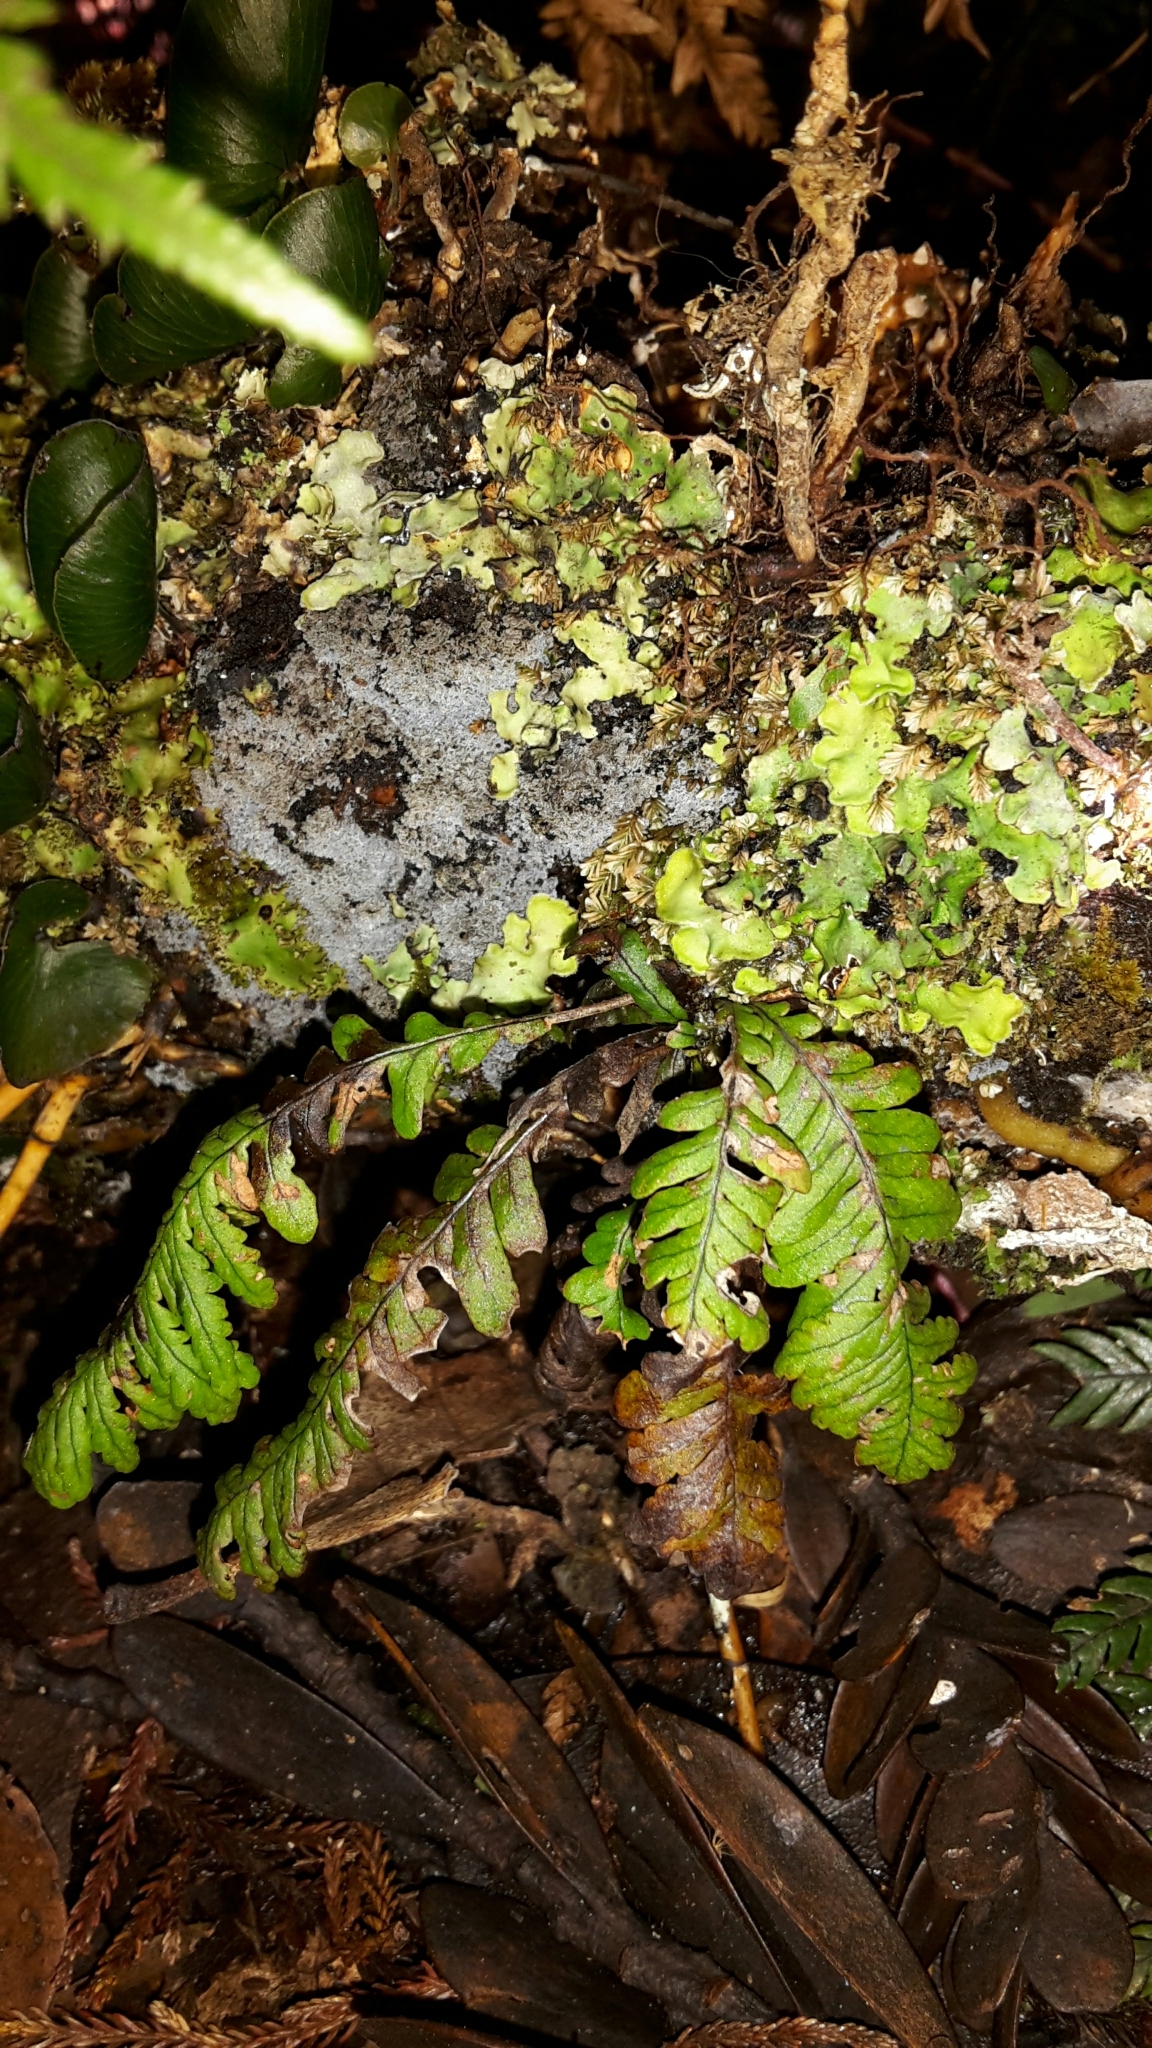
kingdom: Plantae
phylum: Tracheophyta
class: Polypodiopsida
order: Polypodiales
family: Polypodiaceae
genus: Notogrammitis
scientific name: Notogrammitis heterophylla
